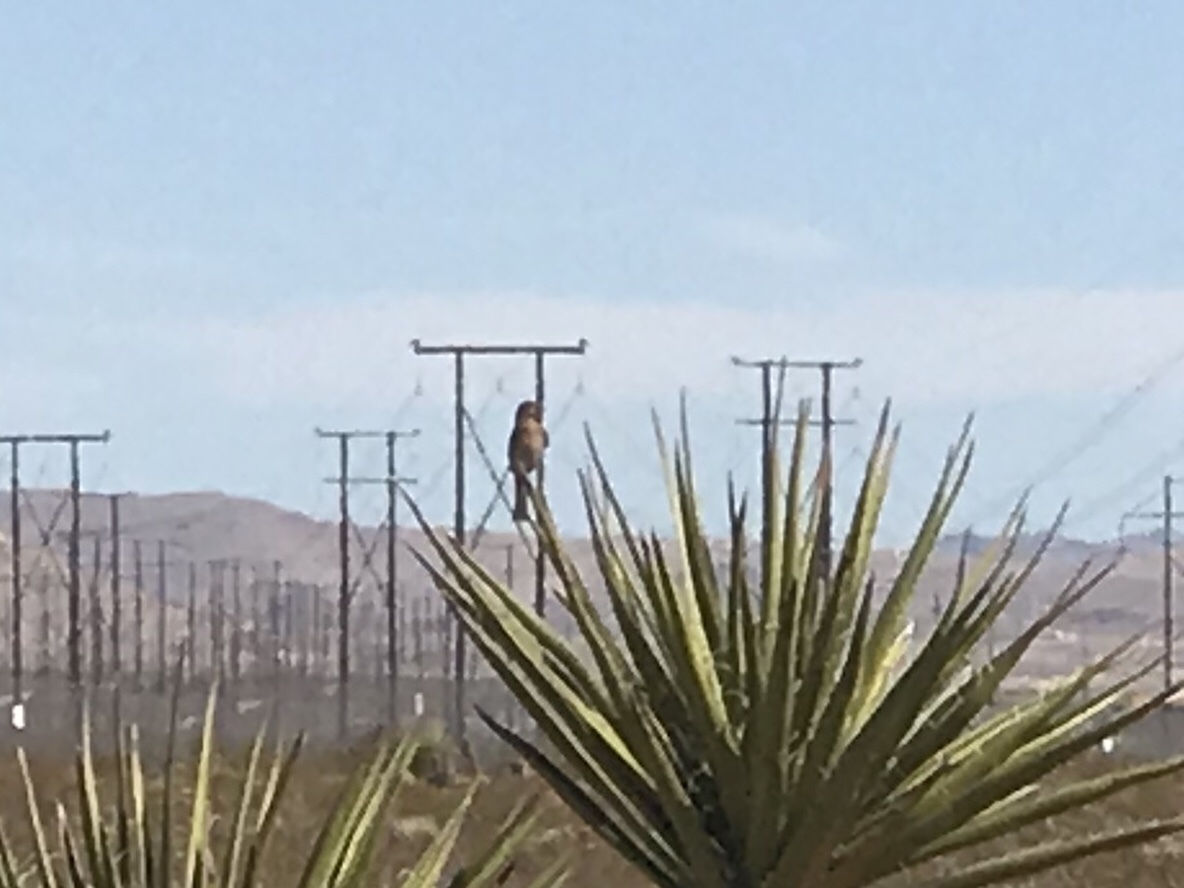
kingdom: Animalia
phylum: Chordata
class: Aves
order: Passeriformes
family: Fringillidae
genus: Haemorhous
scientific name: Haemorhous mexicanus
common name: House finch
